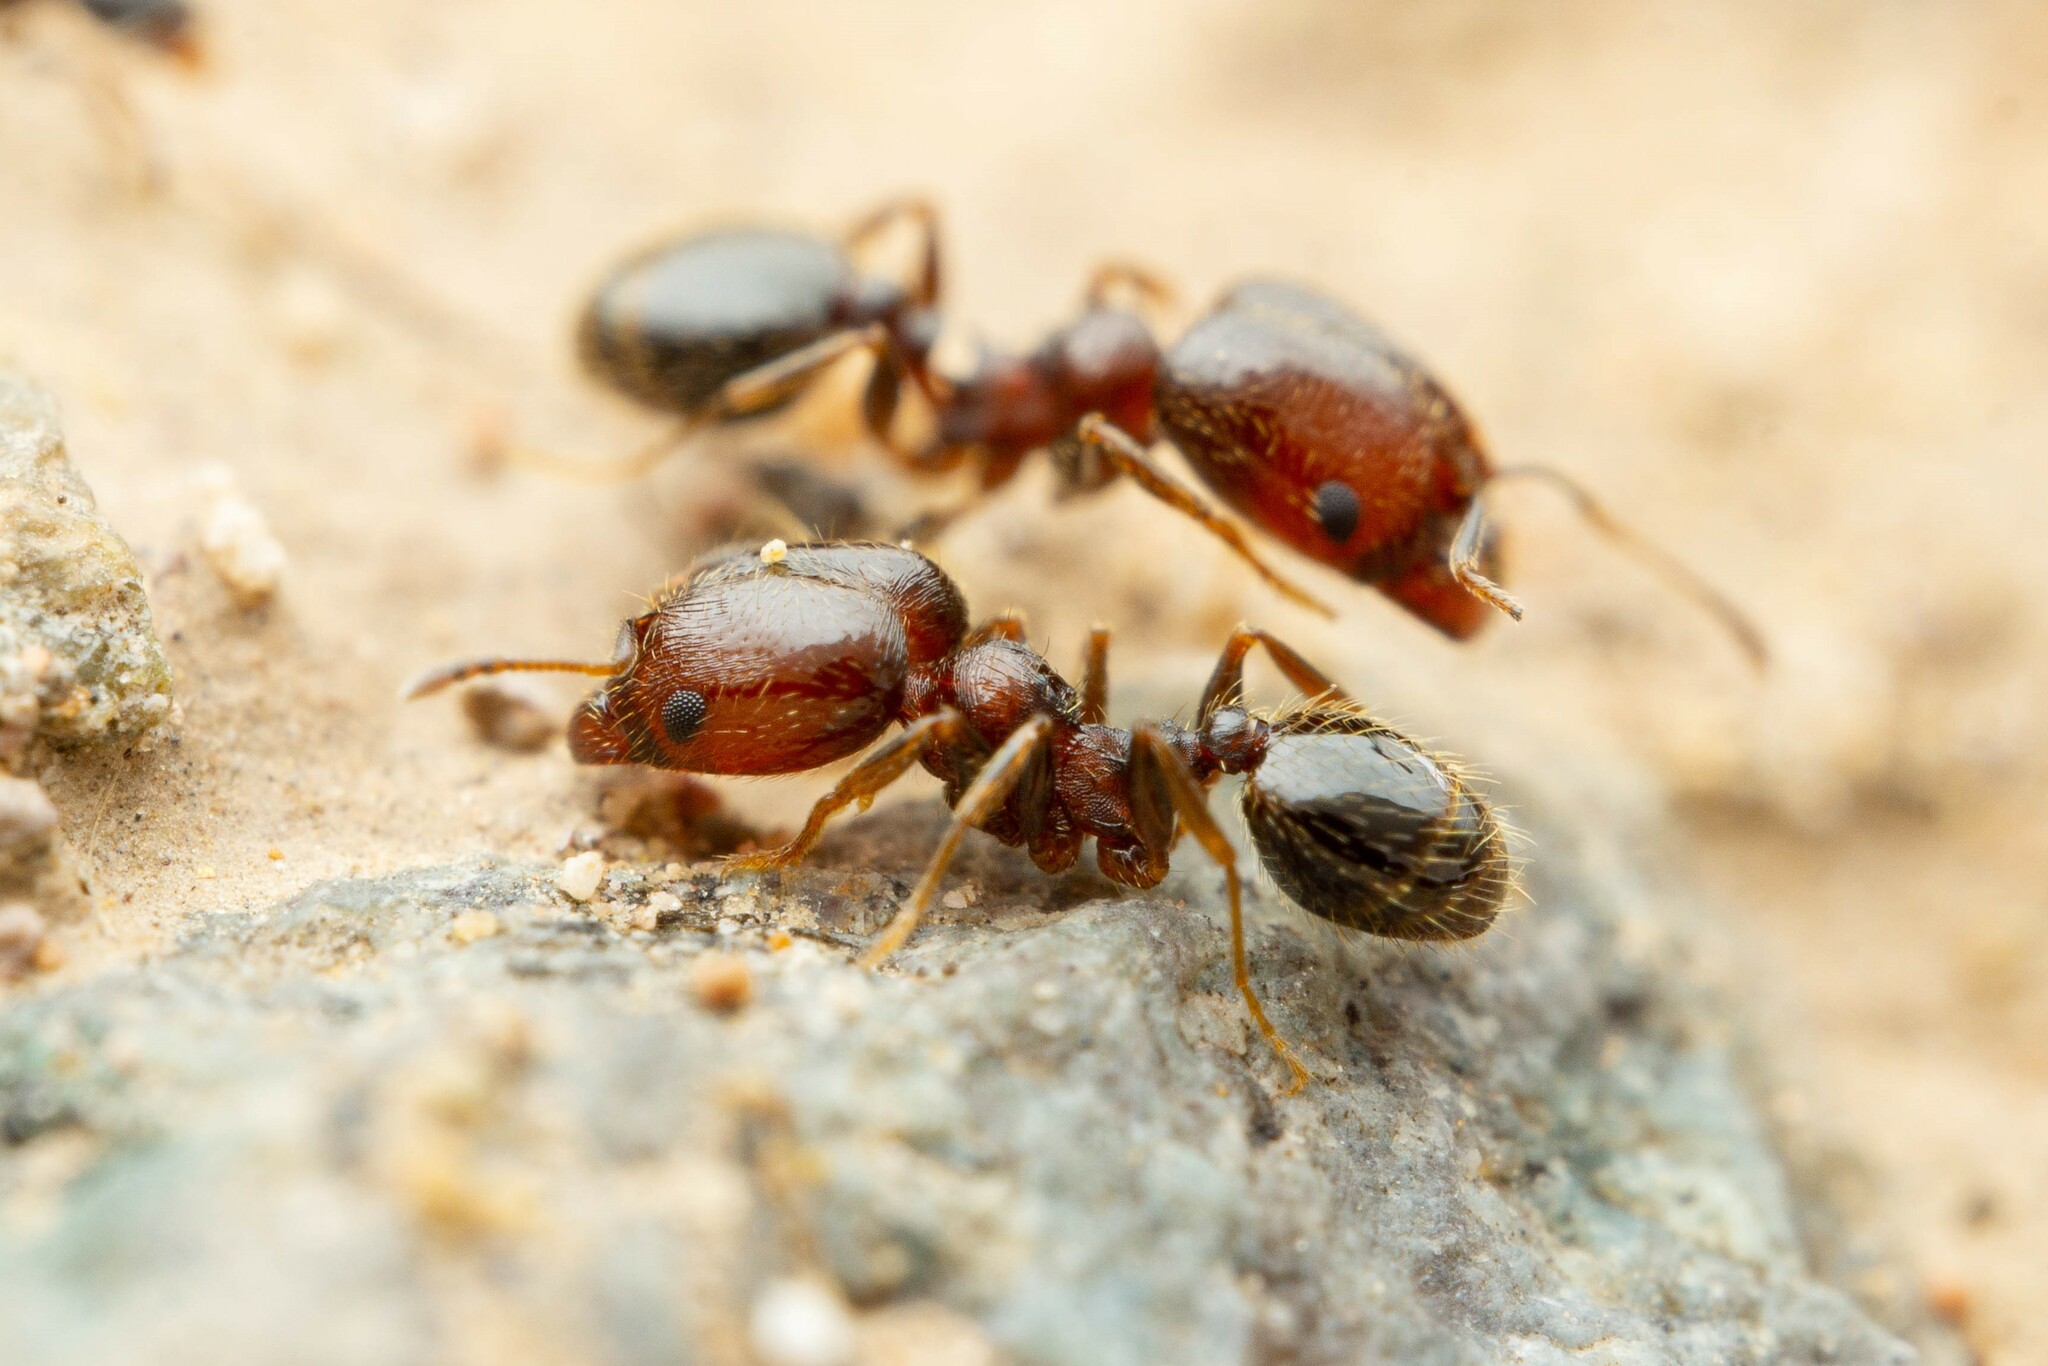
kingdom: Animalia
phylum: Arthropoda
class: Insecta
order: Hymenoptera
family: Formicidae
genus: Pheidole
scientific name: Pheidole rugulosa
